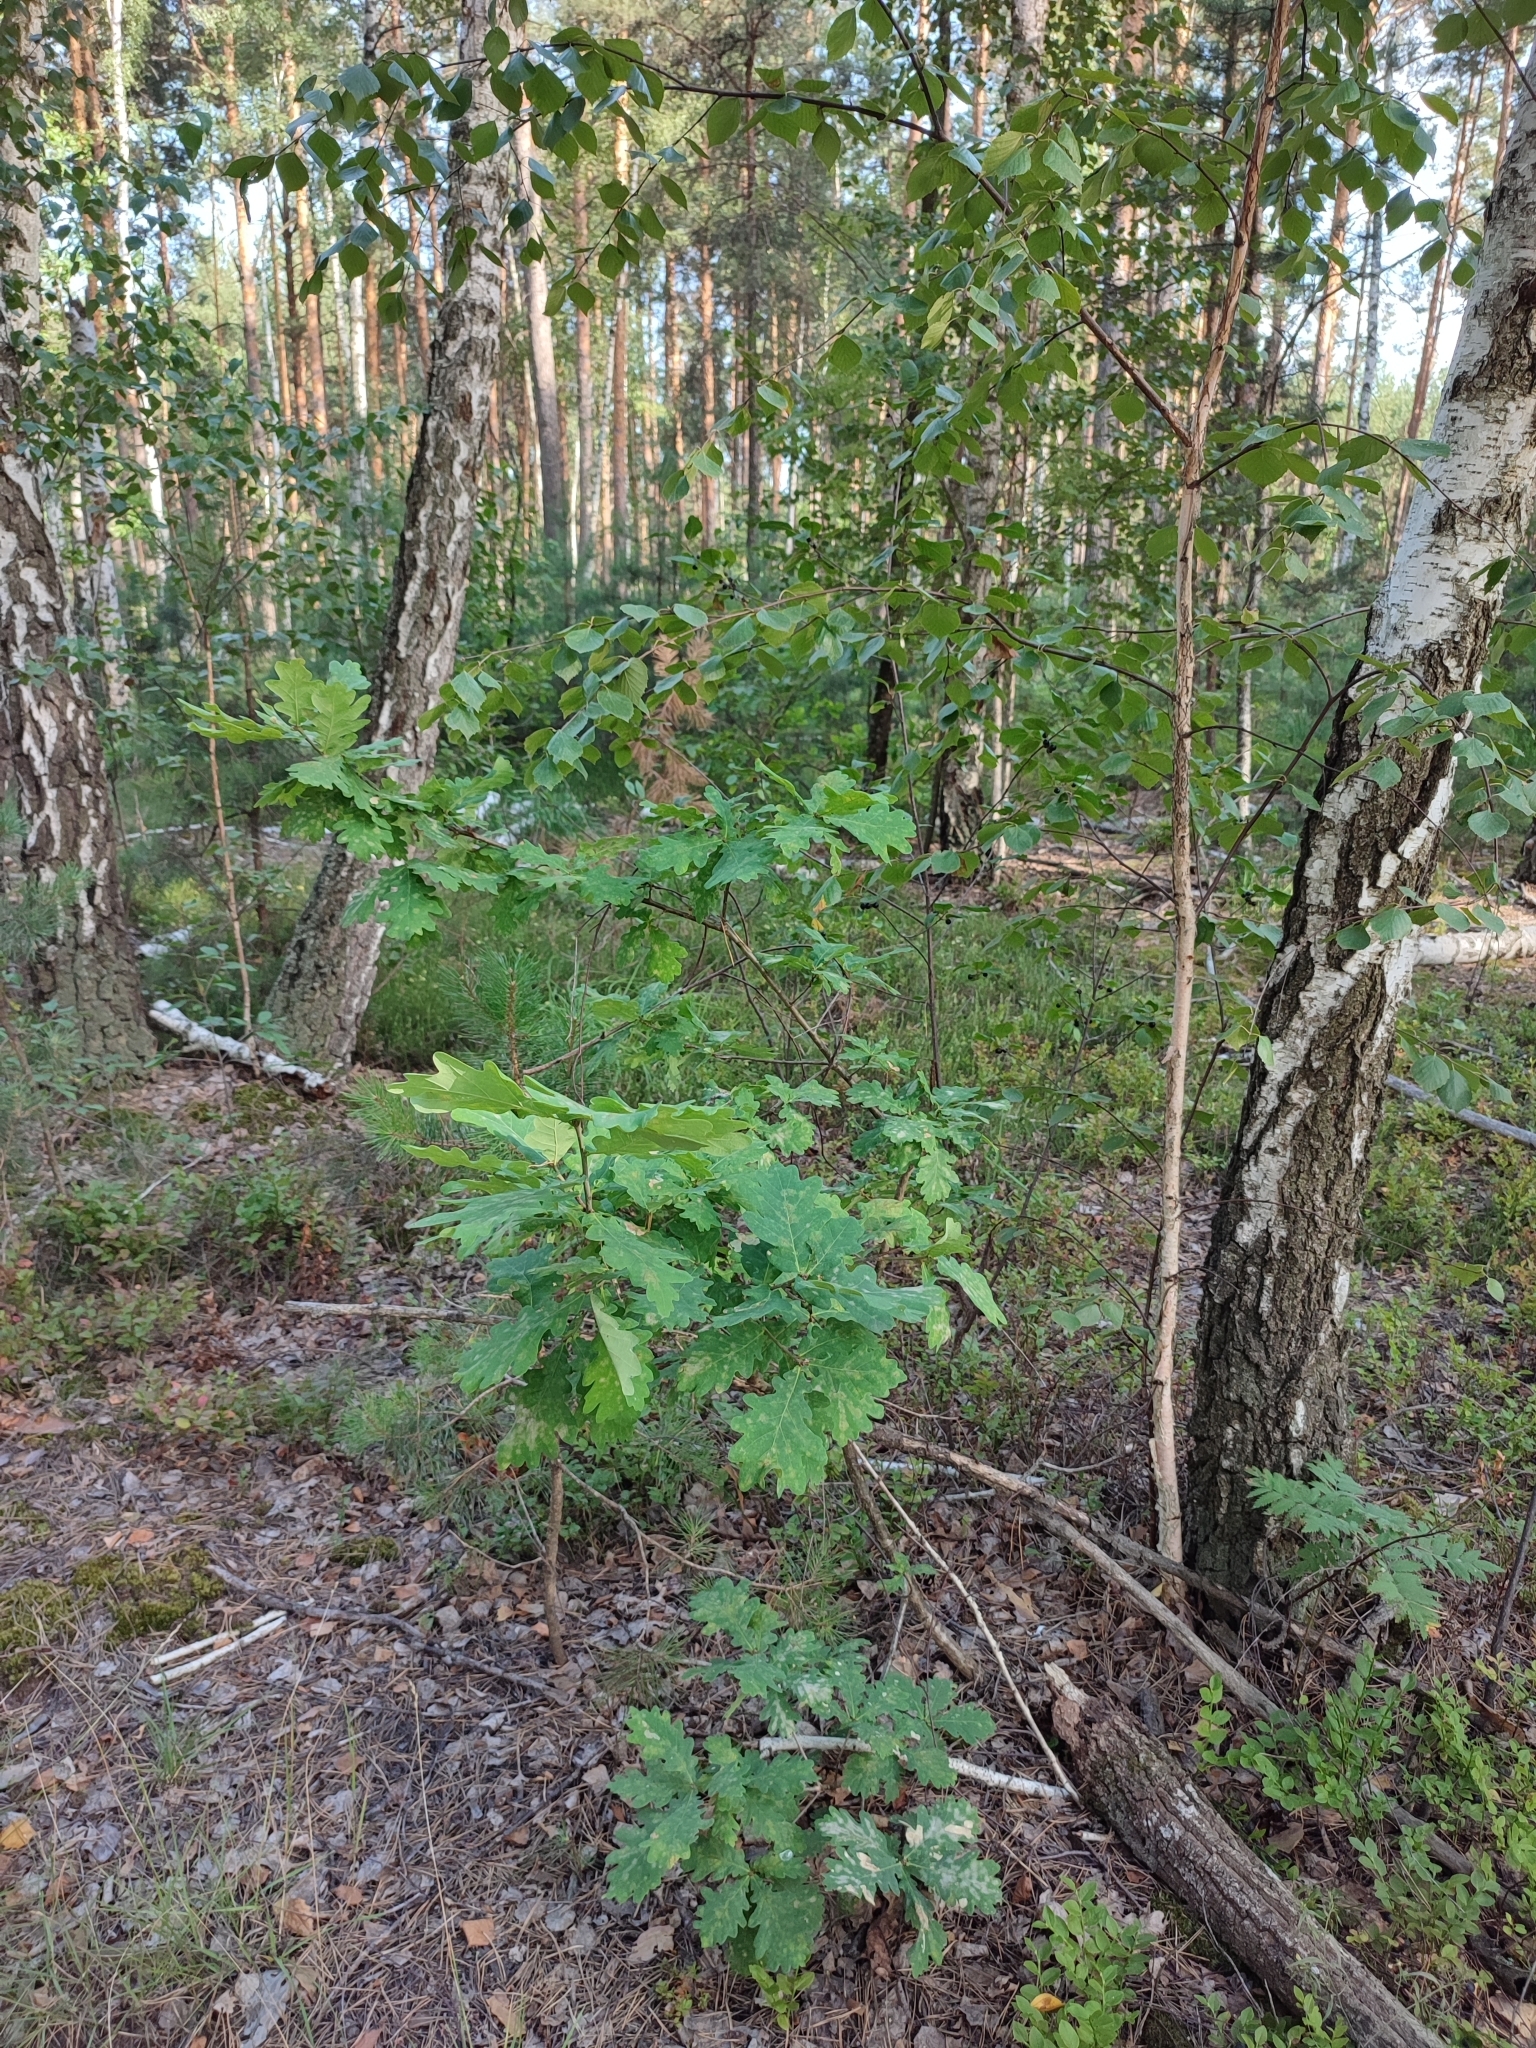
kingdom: Plantae
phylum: Tracheophyta
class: Magnoliopsida
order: Fagales
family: Fagaceae
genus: Quercus
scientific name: Quercus robur
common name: Pedunculate oak
